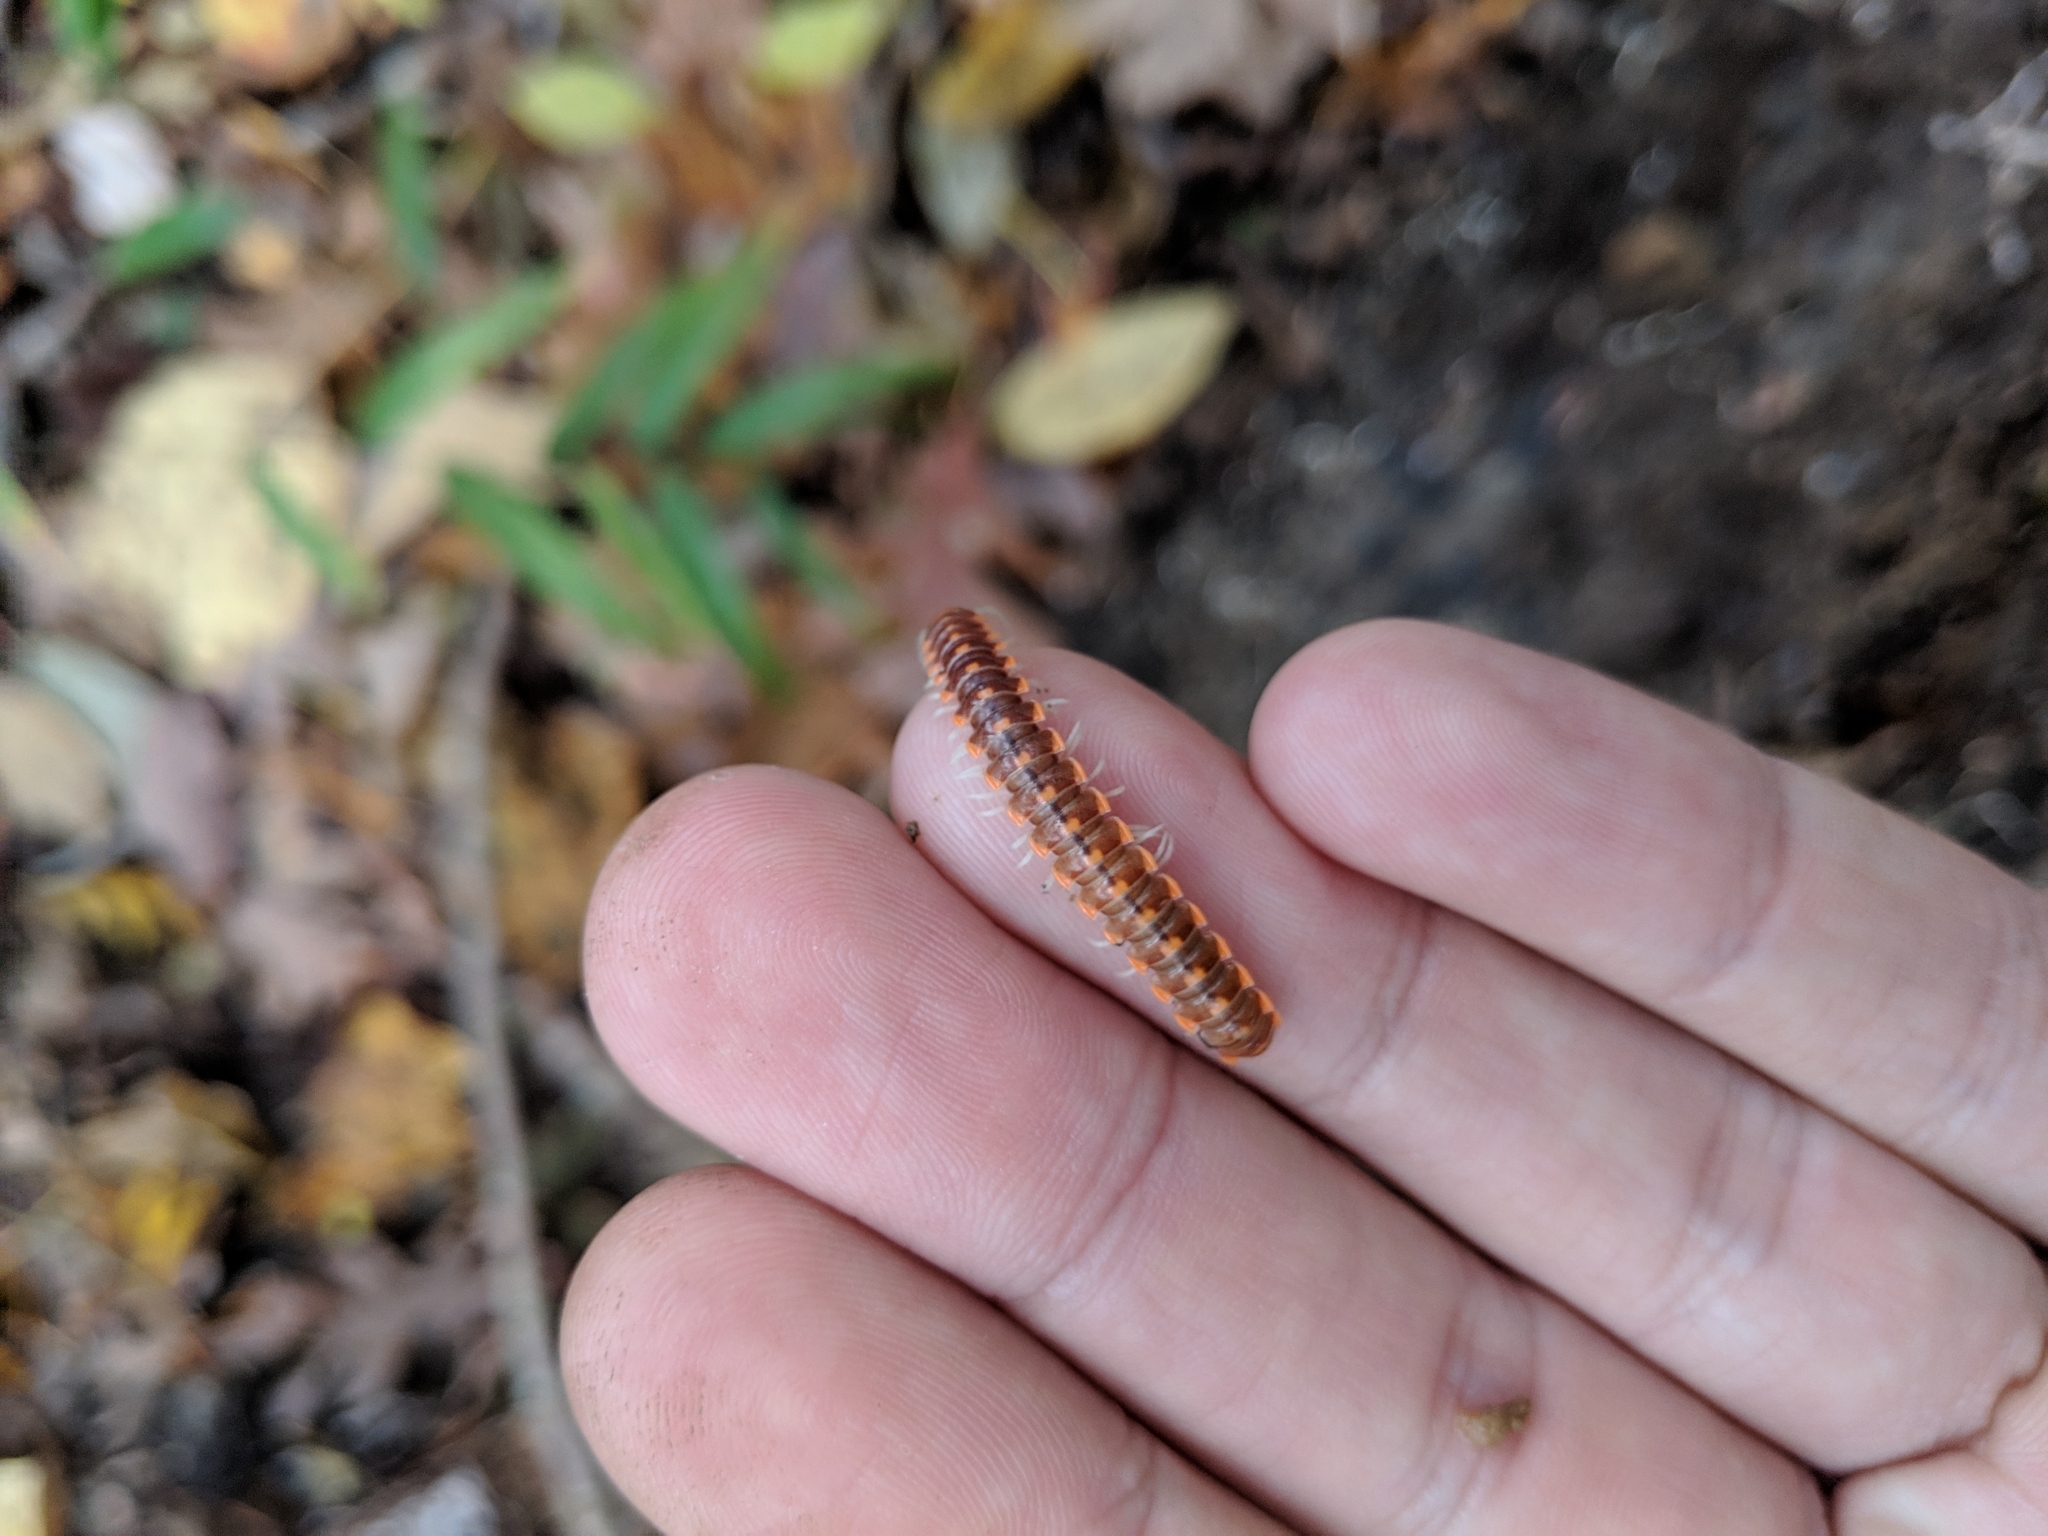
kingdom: Animalia
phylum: Arthropoda
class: Diplopoda
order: Polydesmida
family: Xystodesmidae
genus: Euryurus
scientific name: Euryurus leachii
